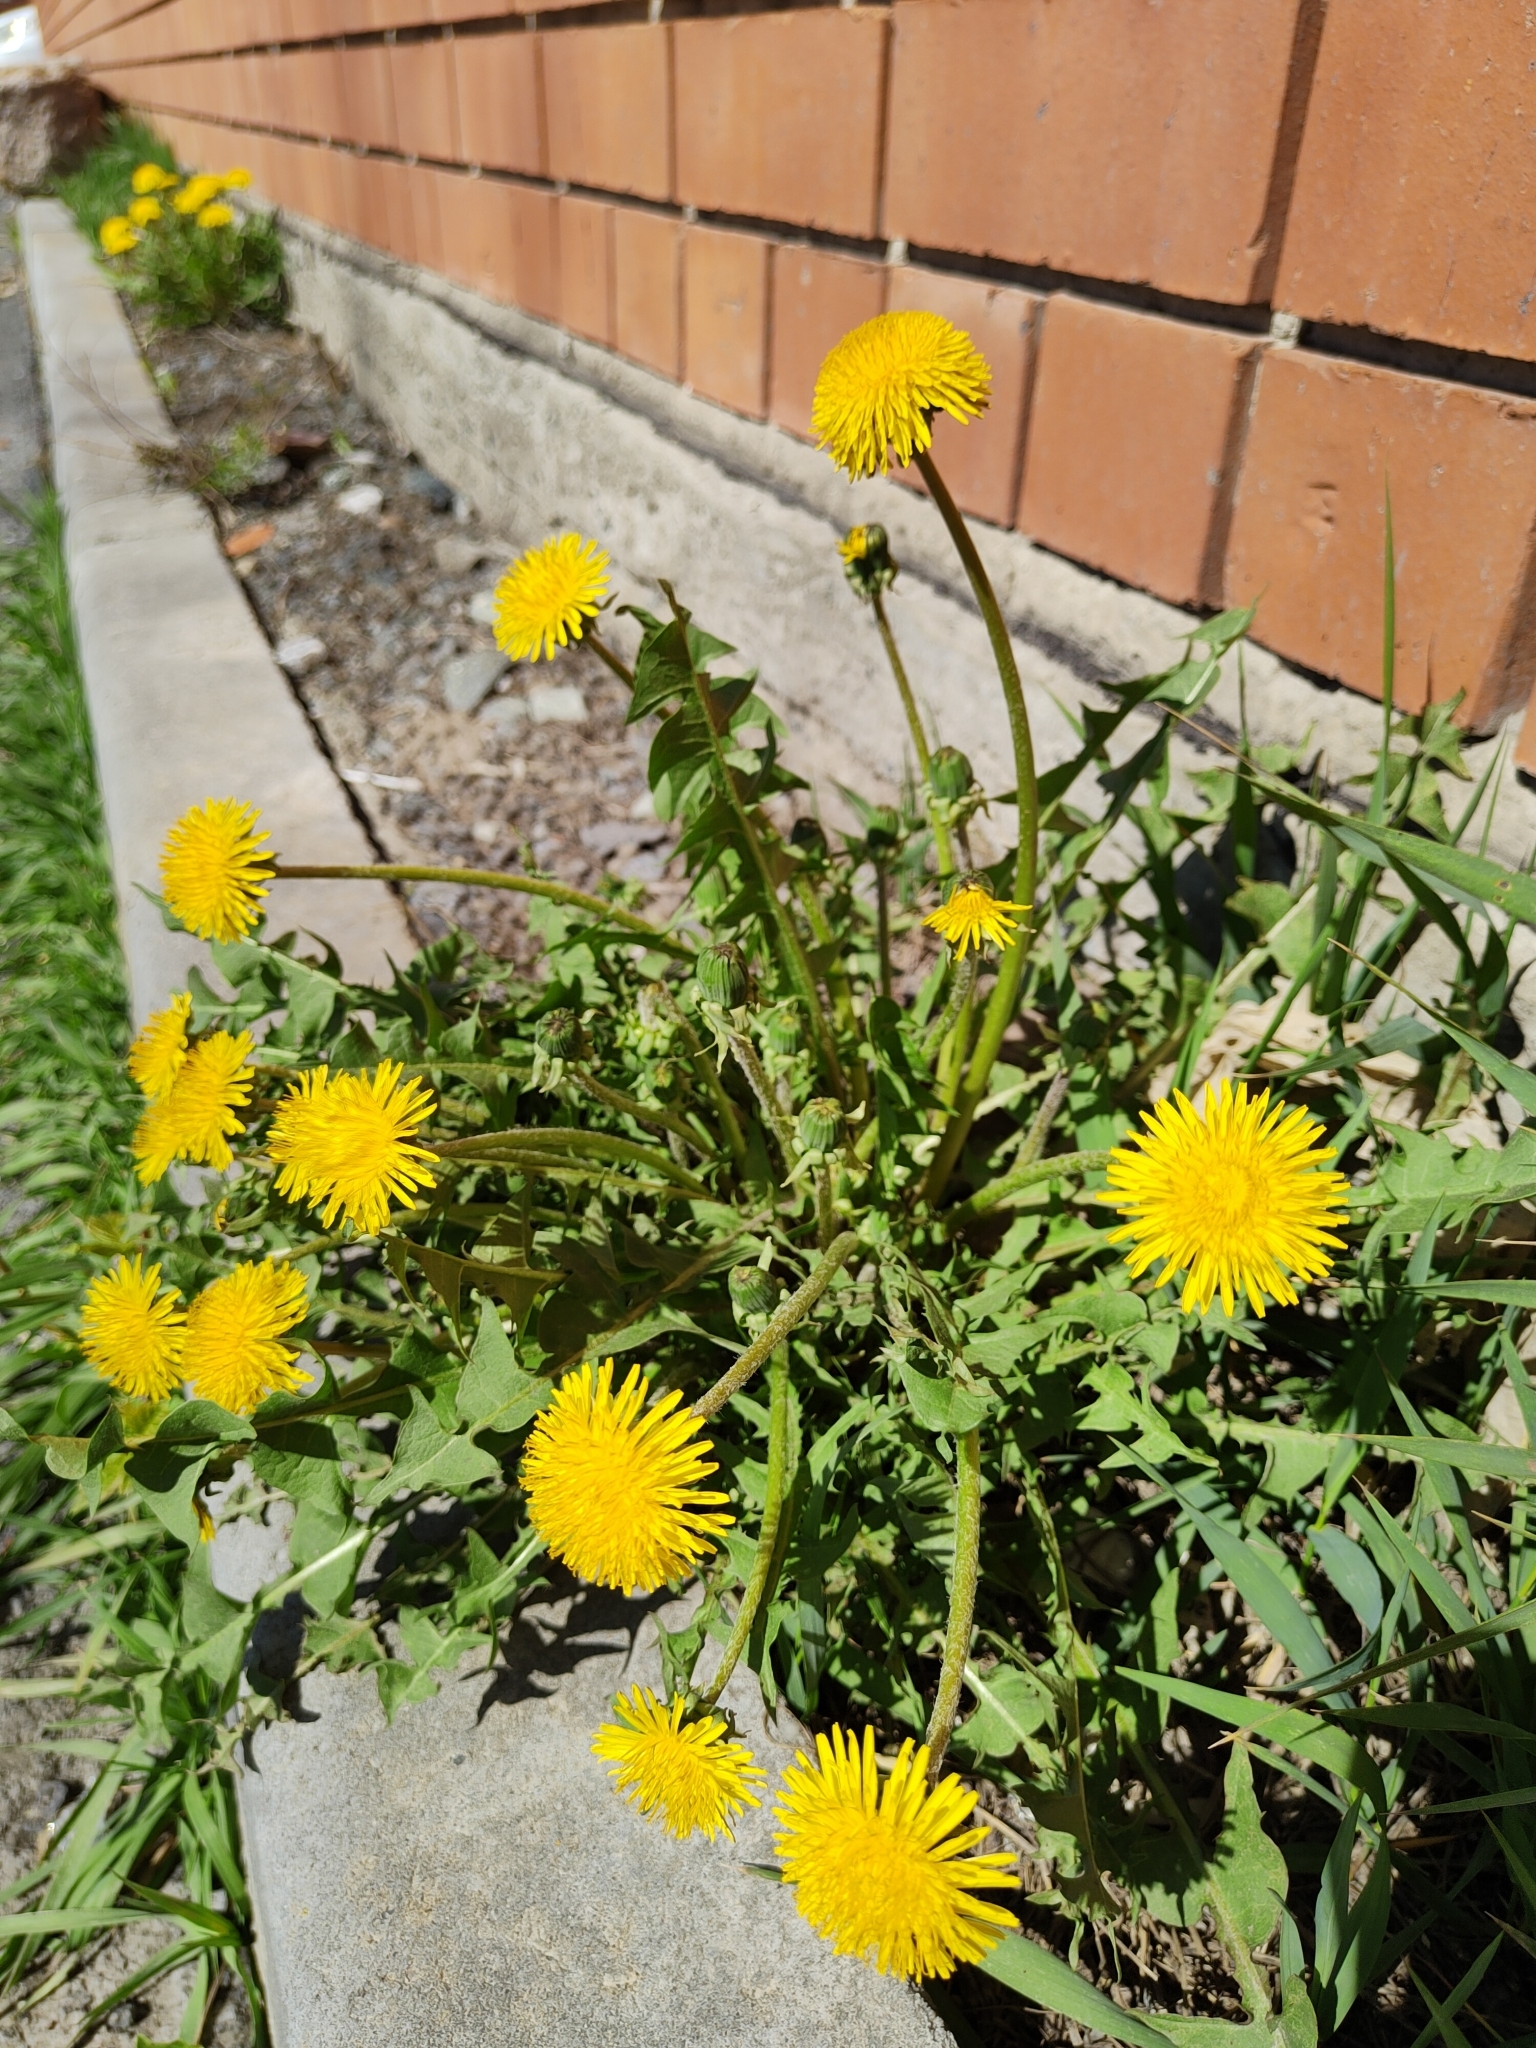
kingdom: Plantae
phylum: Tracheophyta
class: Magnoliopsida
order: Asterales
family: Asteraceae
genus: Taraxacum
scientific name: Taraxacum officinale
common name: Common dandelion
